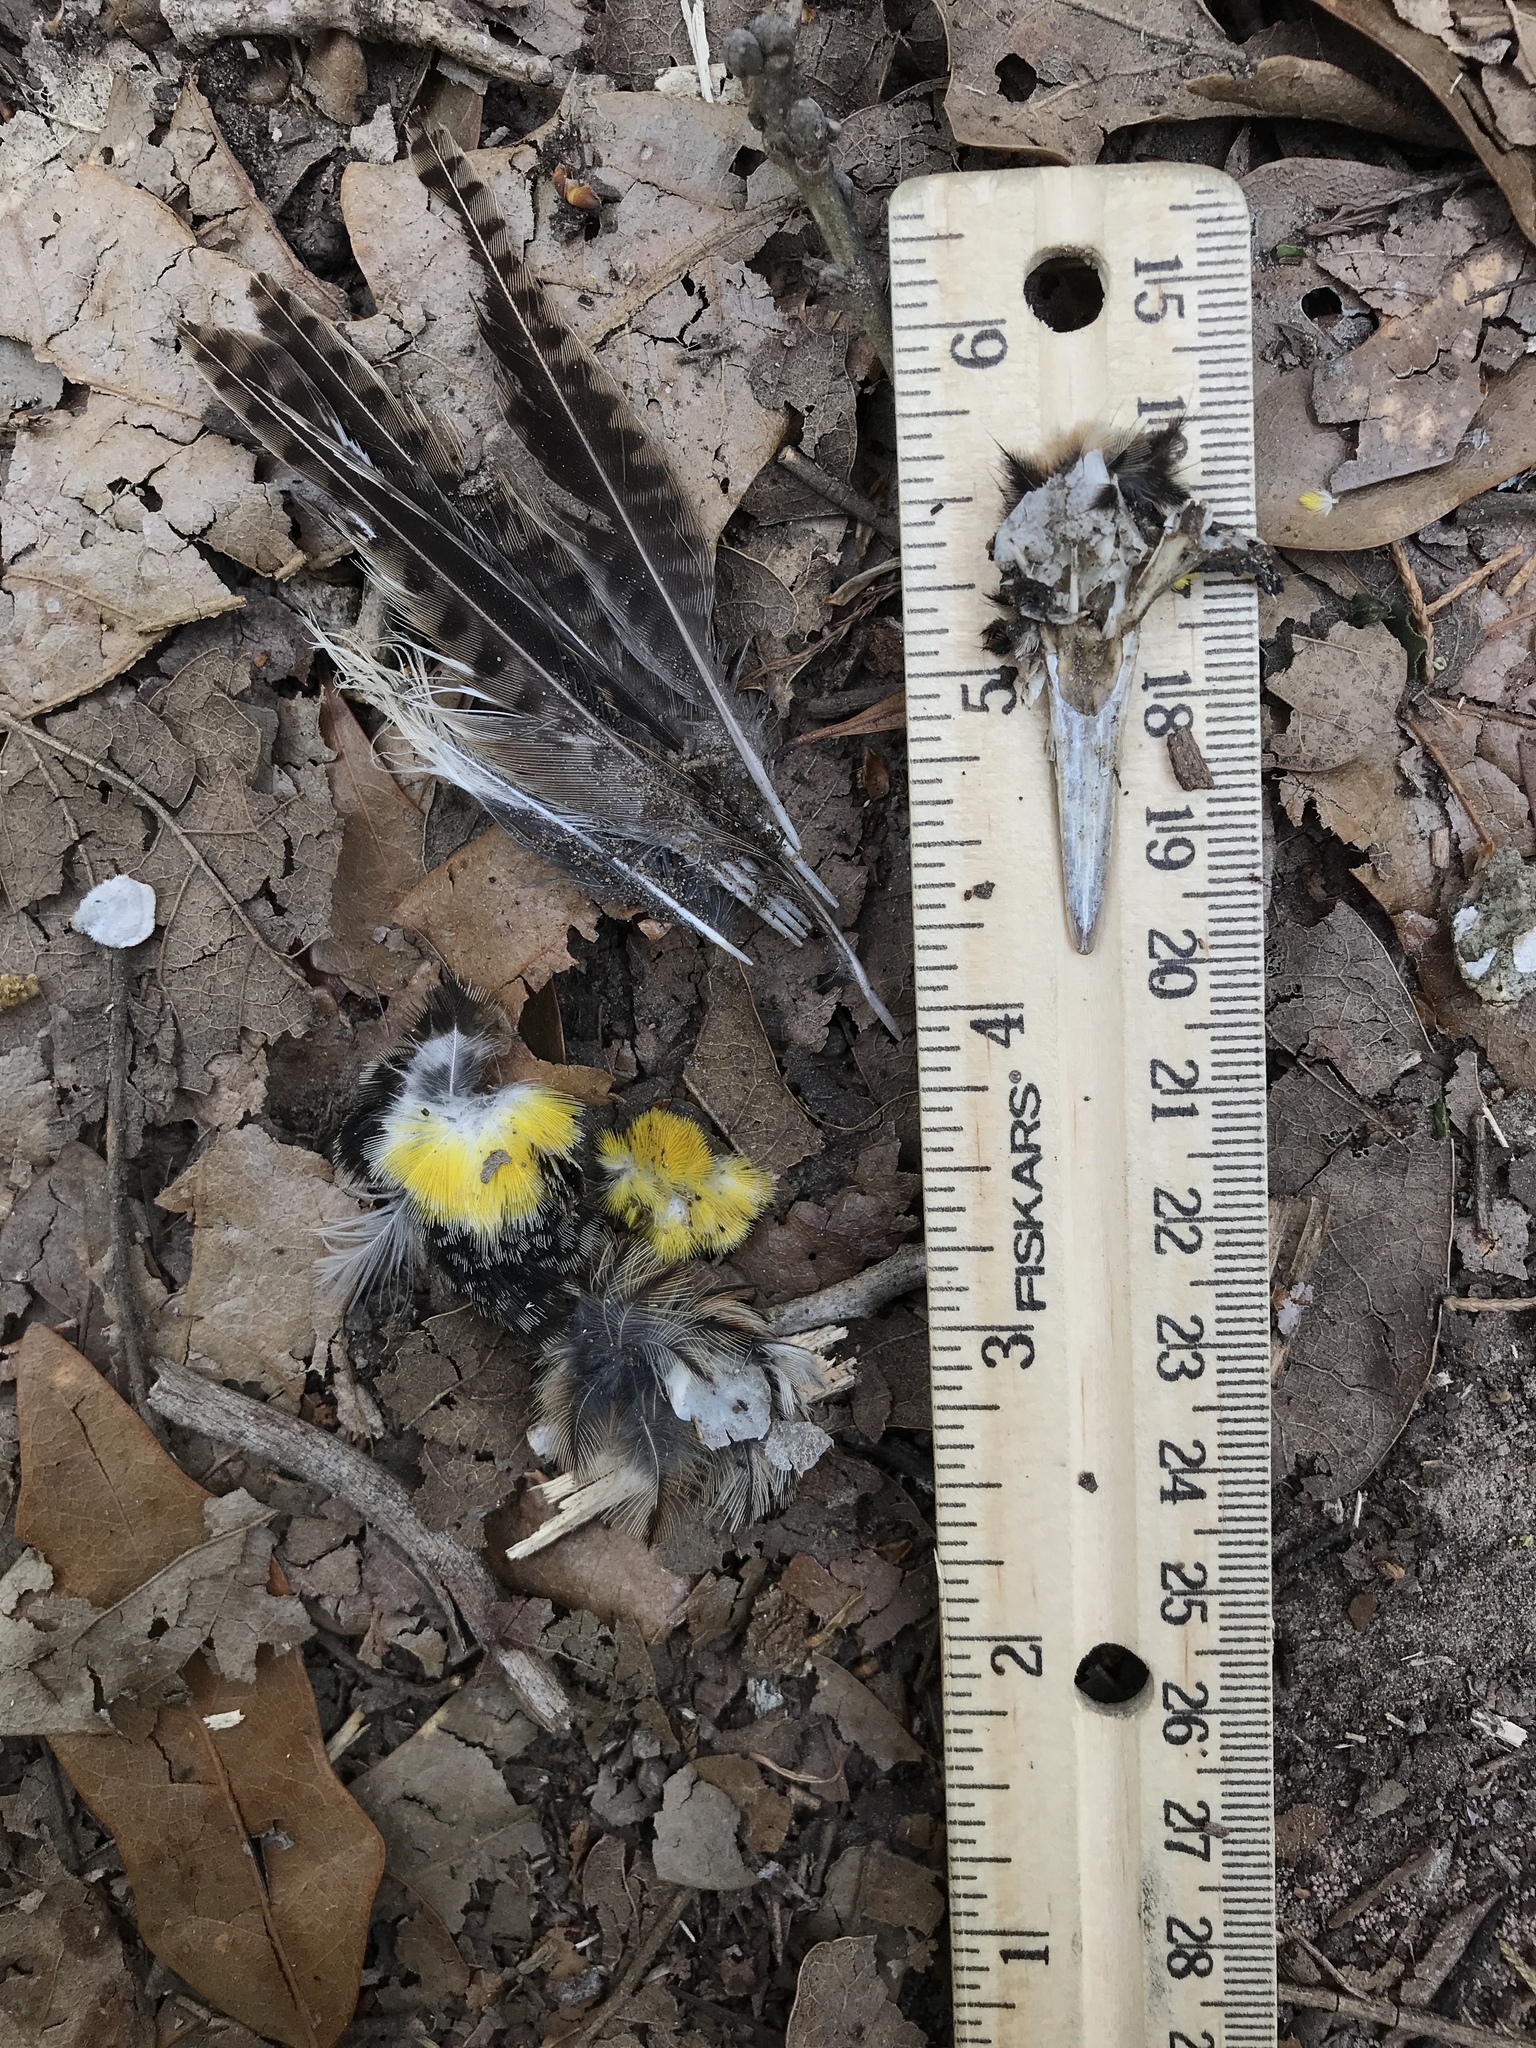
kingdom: Animalia
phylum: Chordata
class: Aves
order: Passeriformes
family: Icteridae
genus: Sturnella
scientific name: Sturnella magna
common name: Eastern meadowlark
